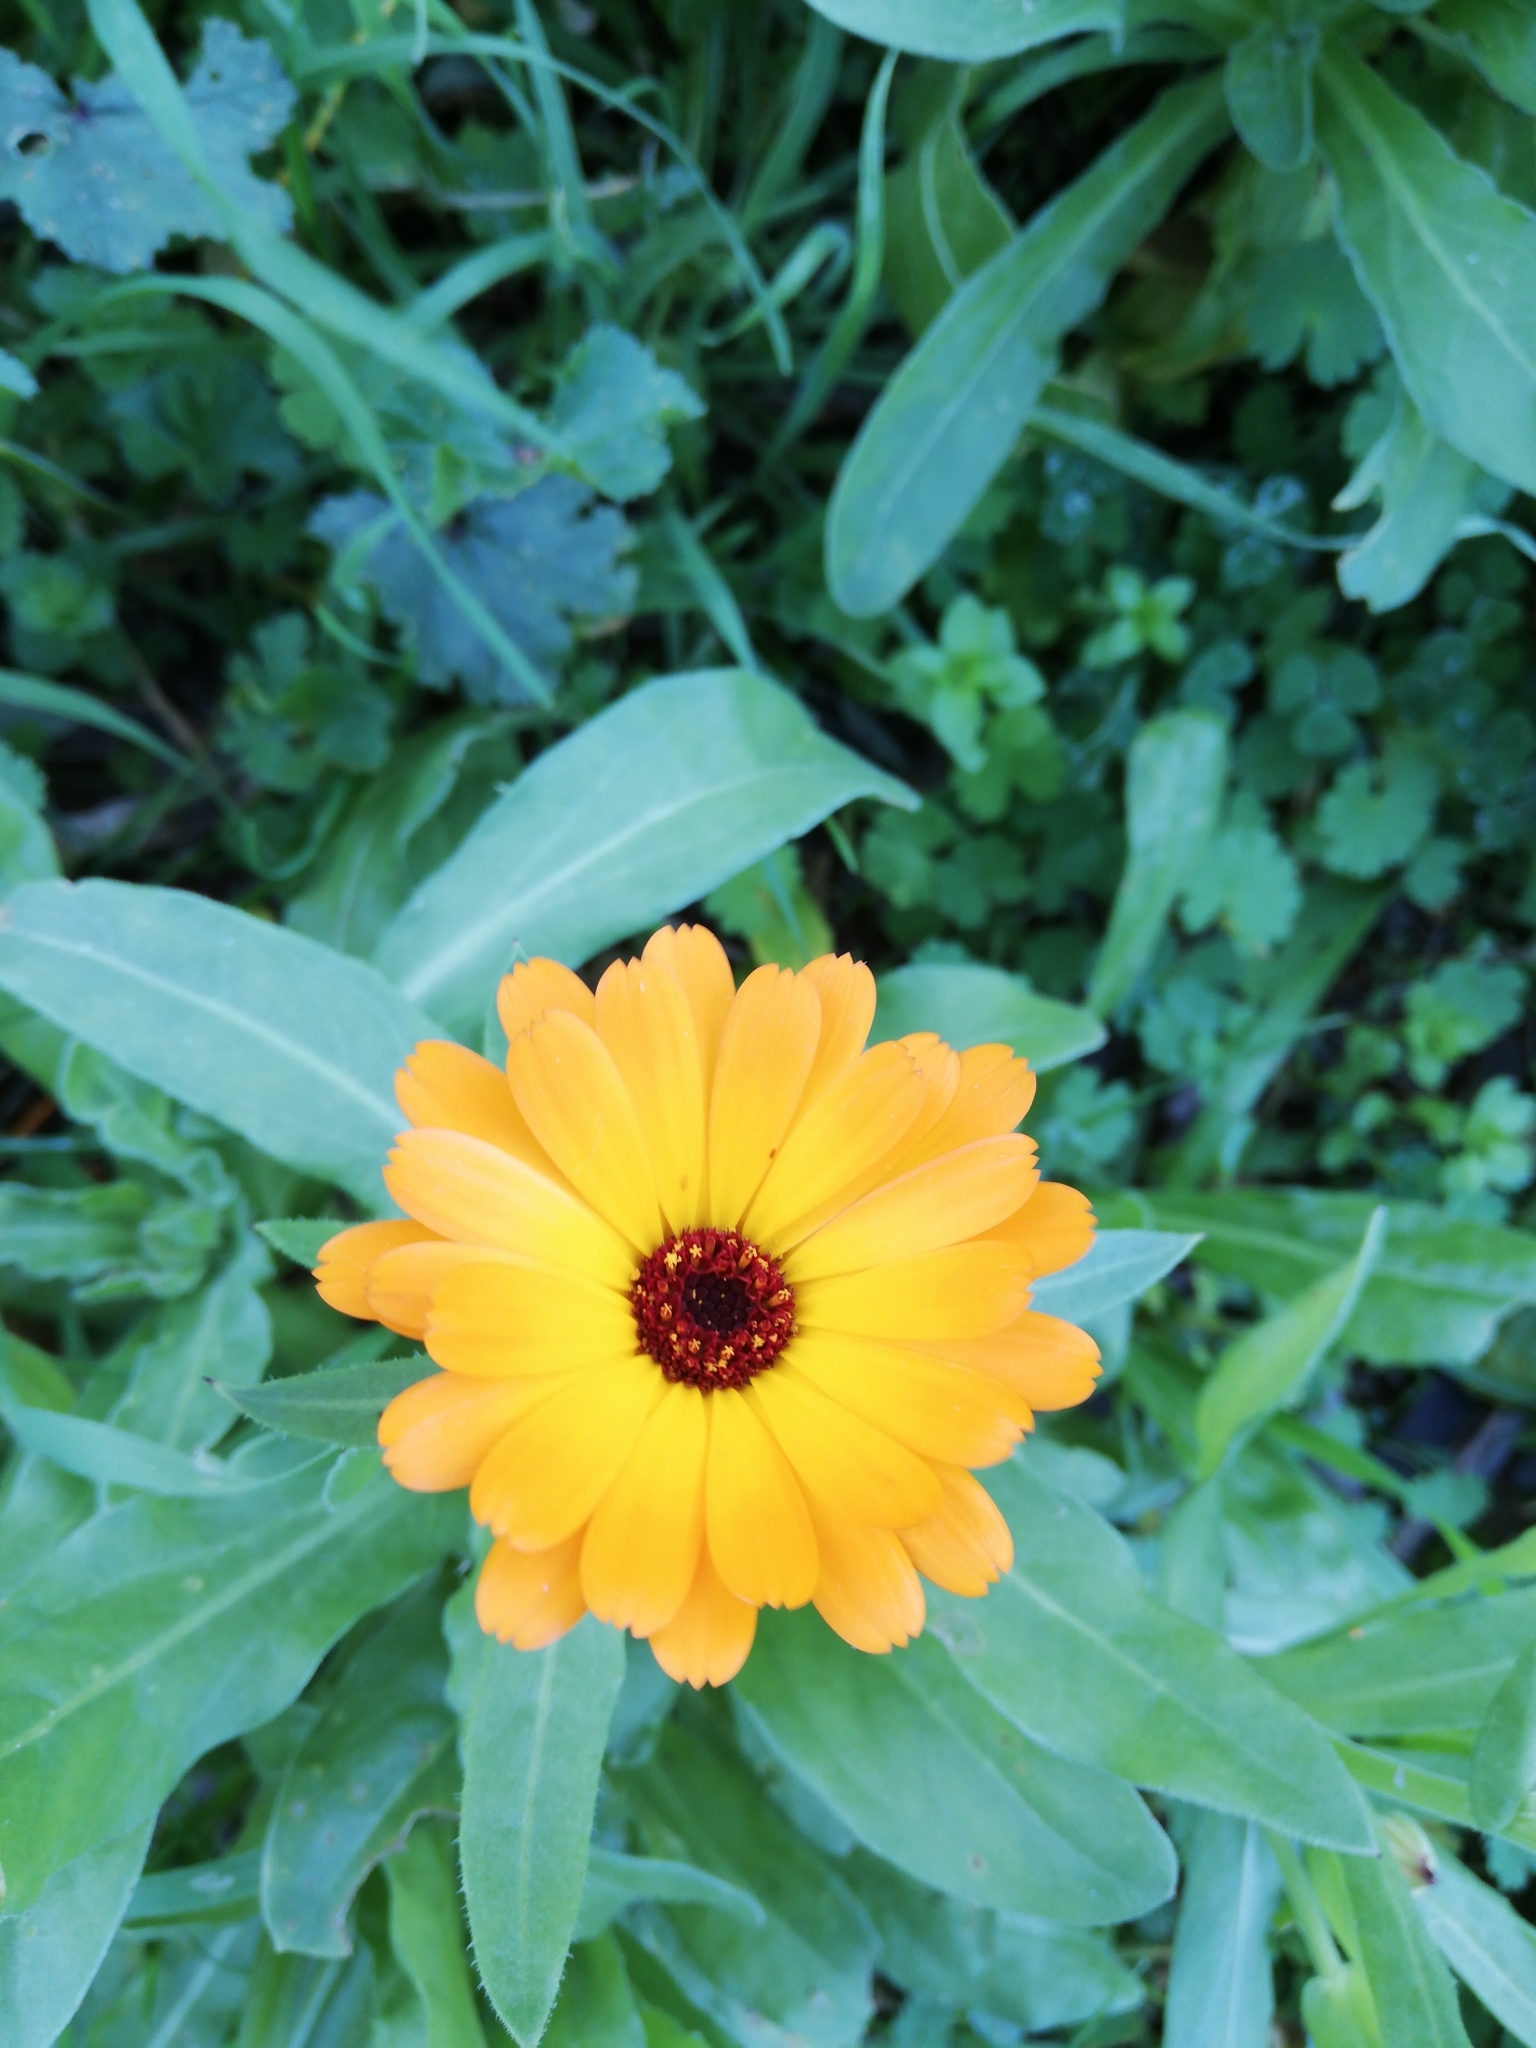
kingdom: Plantae
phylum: Tracheophyta
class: Magnoliopsida
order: Asterales
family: Asteraceae
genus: Calendula
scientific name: Calendula officinalis
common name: Pot marigold
